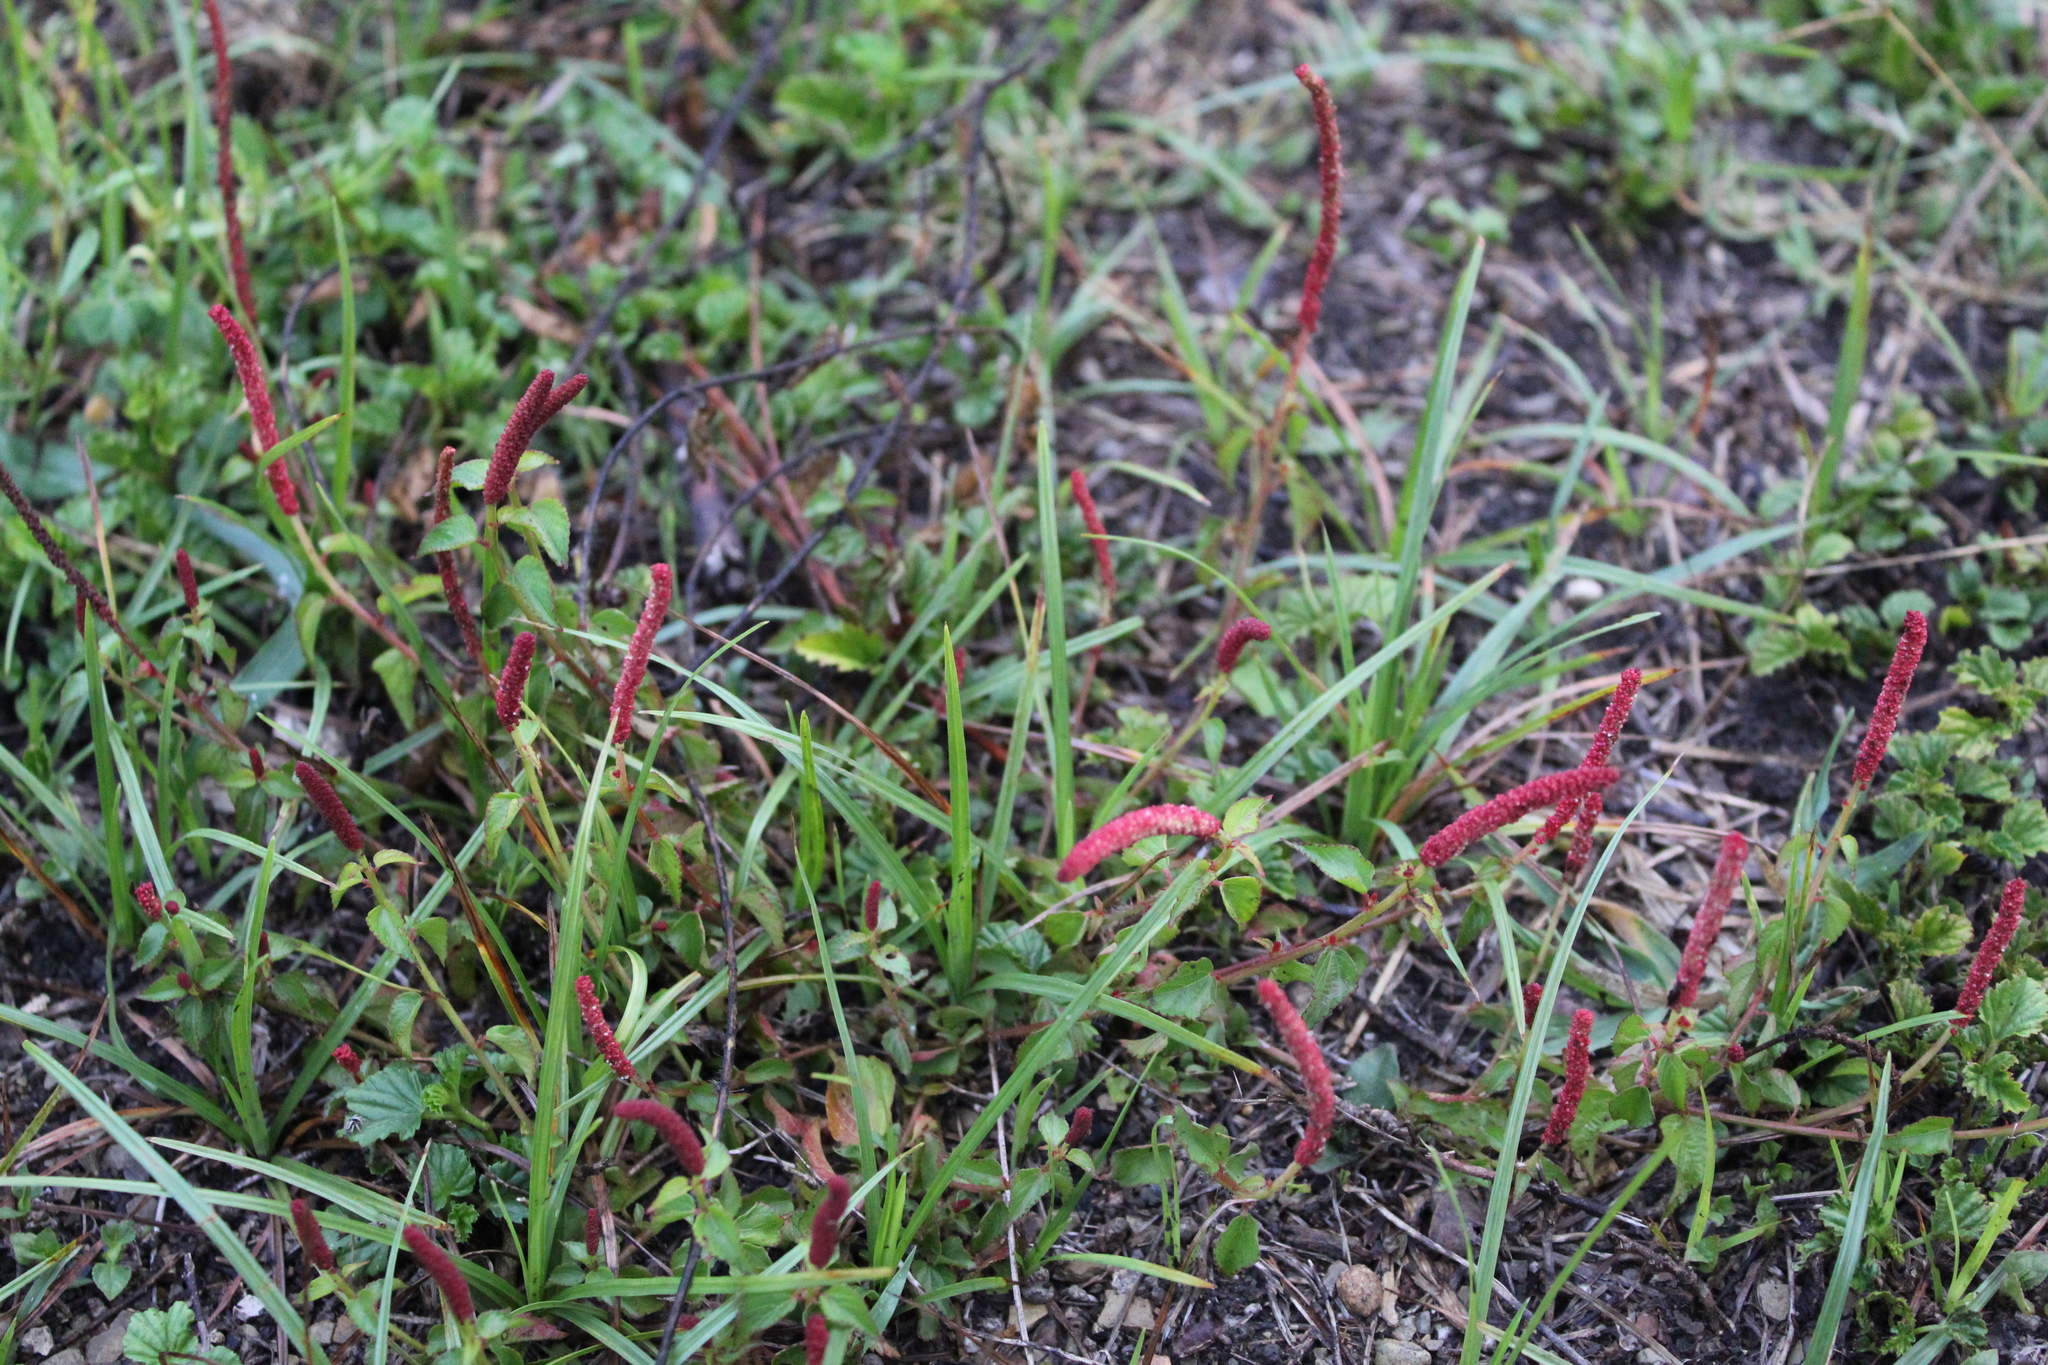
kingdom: Plantae
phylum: Tracheophyta
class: Magnoliopsida
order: Malpighiales
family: Euphorbiaceae
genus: Acalypha
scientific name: Acalypha monostachya
